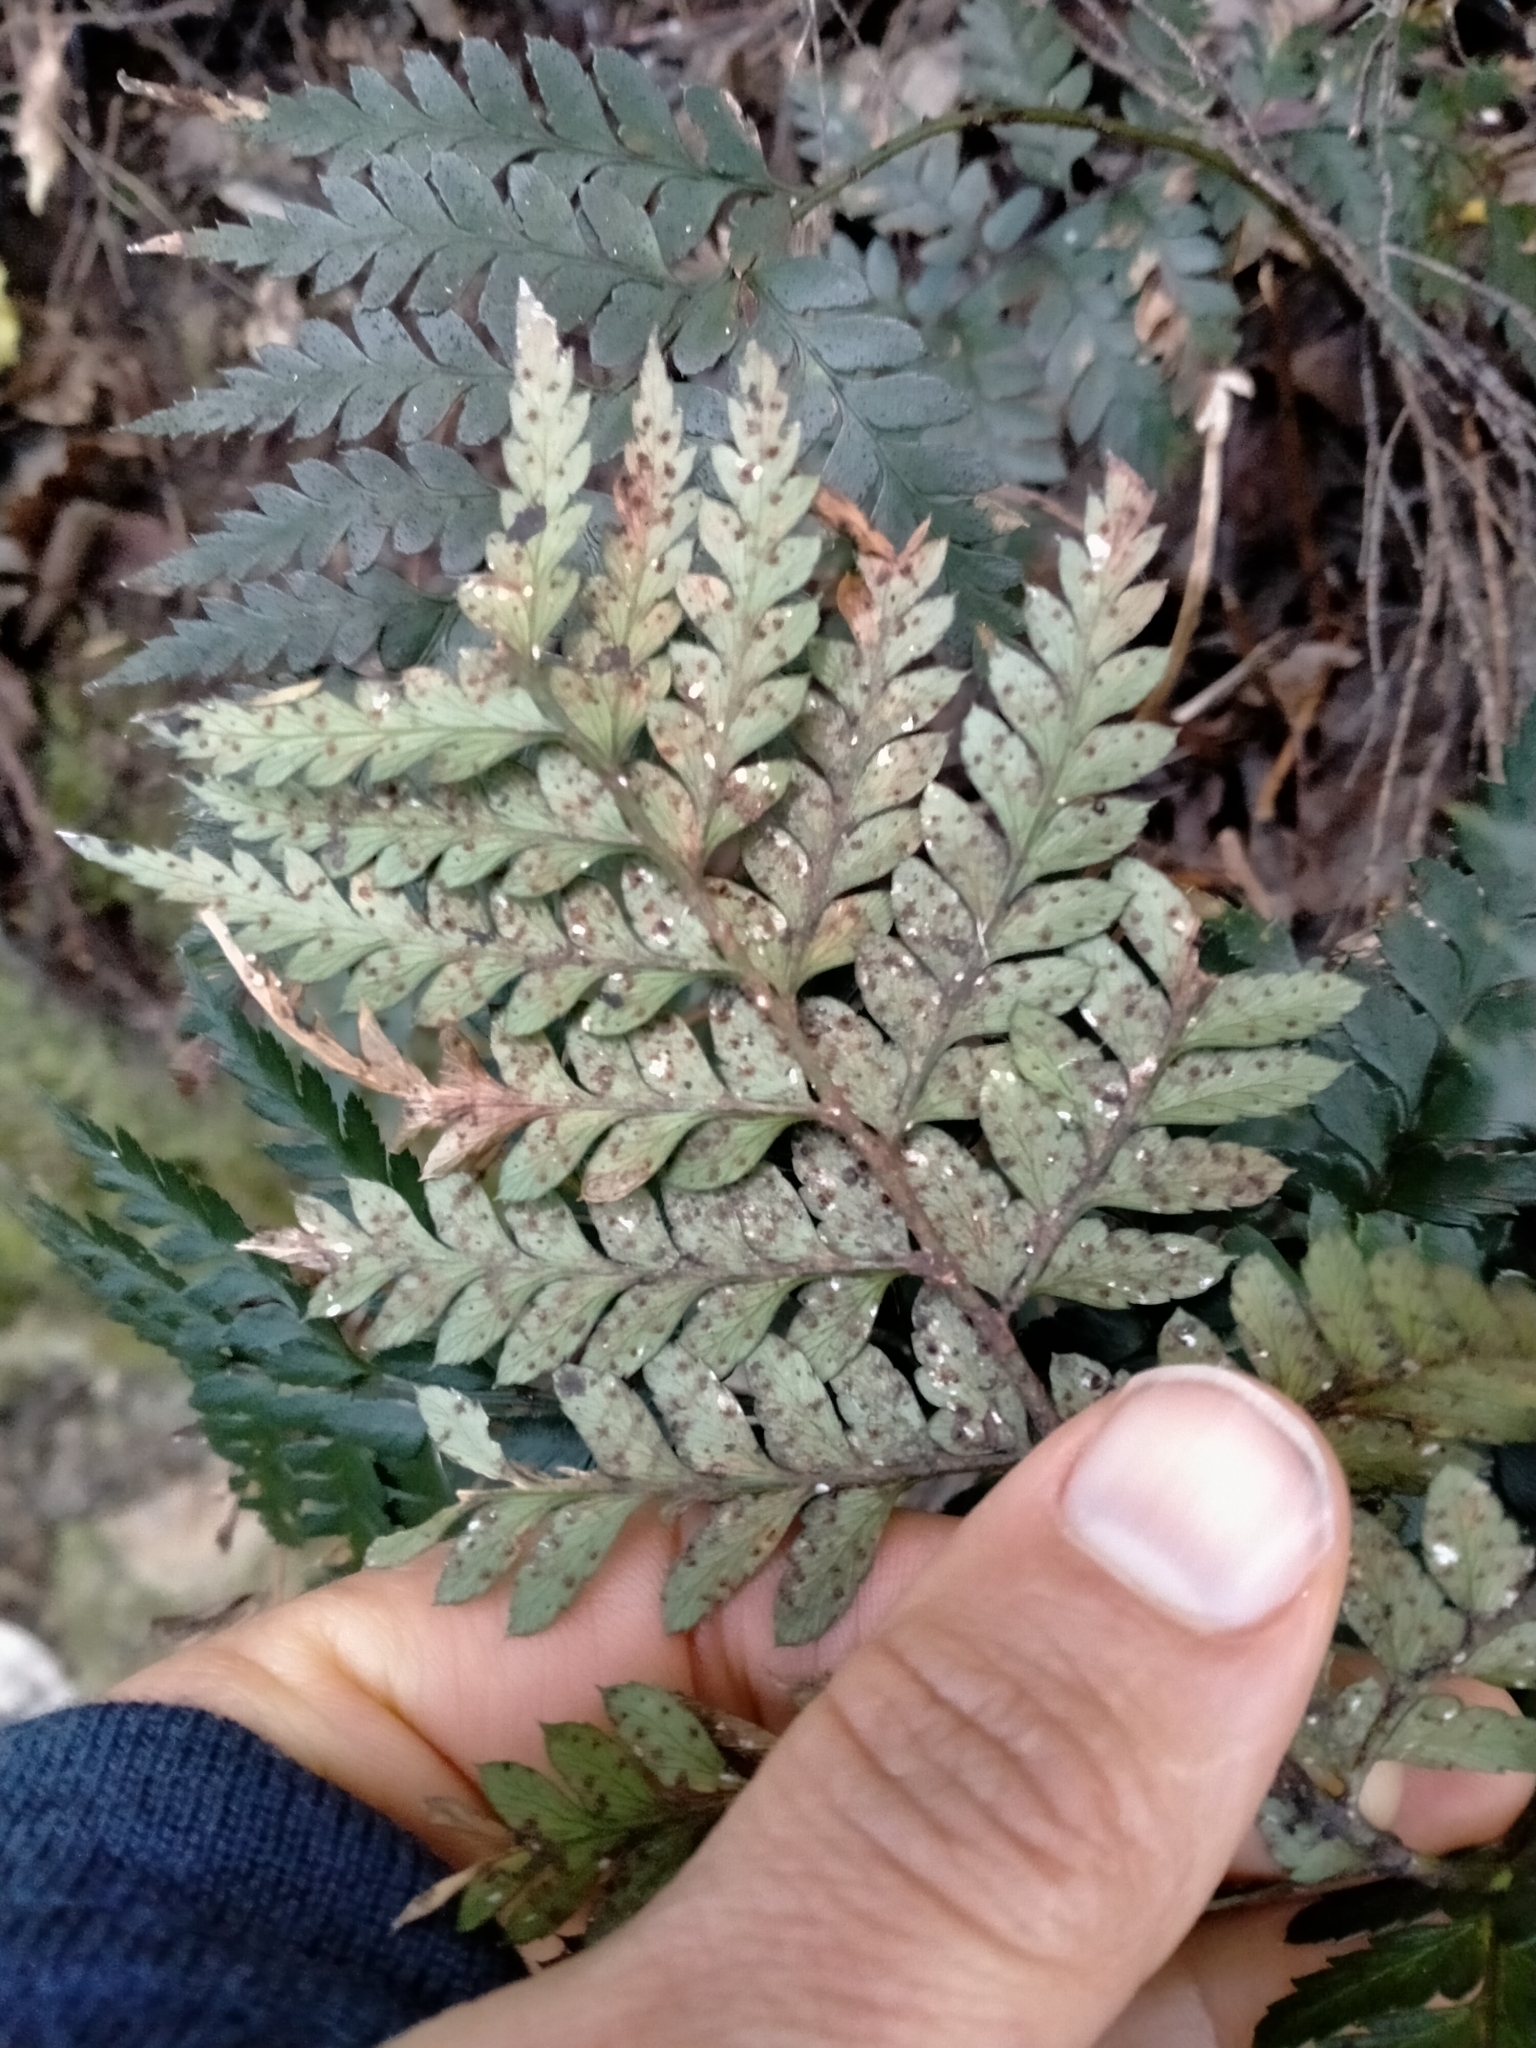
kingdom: Plantae
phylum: Tracheophyta
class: Polypodiopsida
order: Polypodiales
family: Dryopteridaceae
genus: Polystichum
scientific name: Polystichum oculatum
